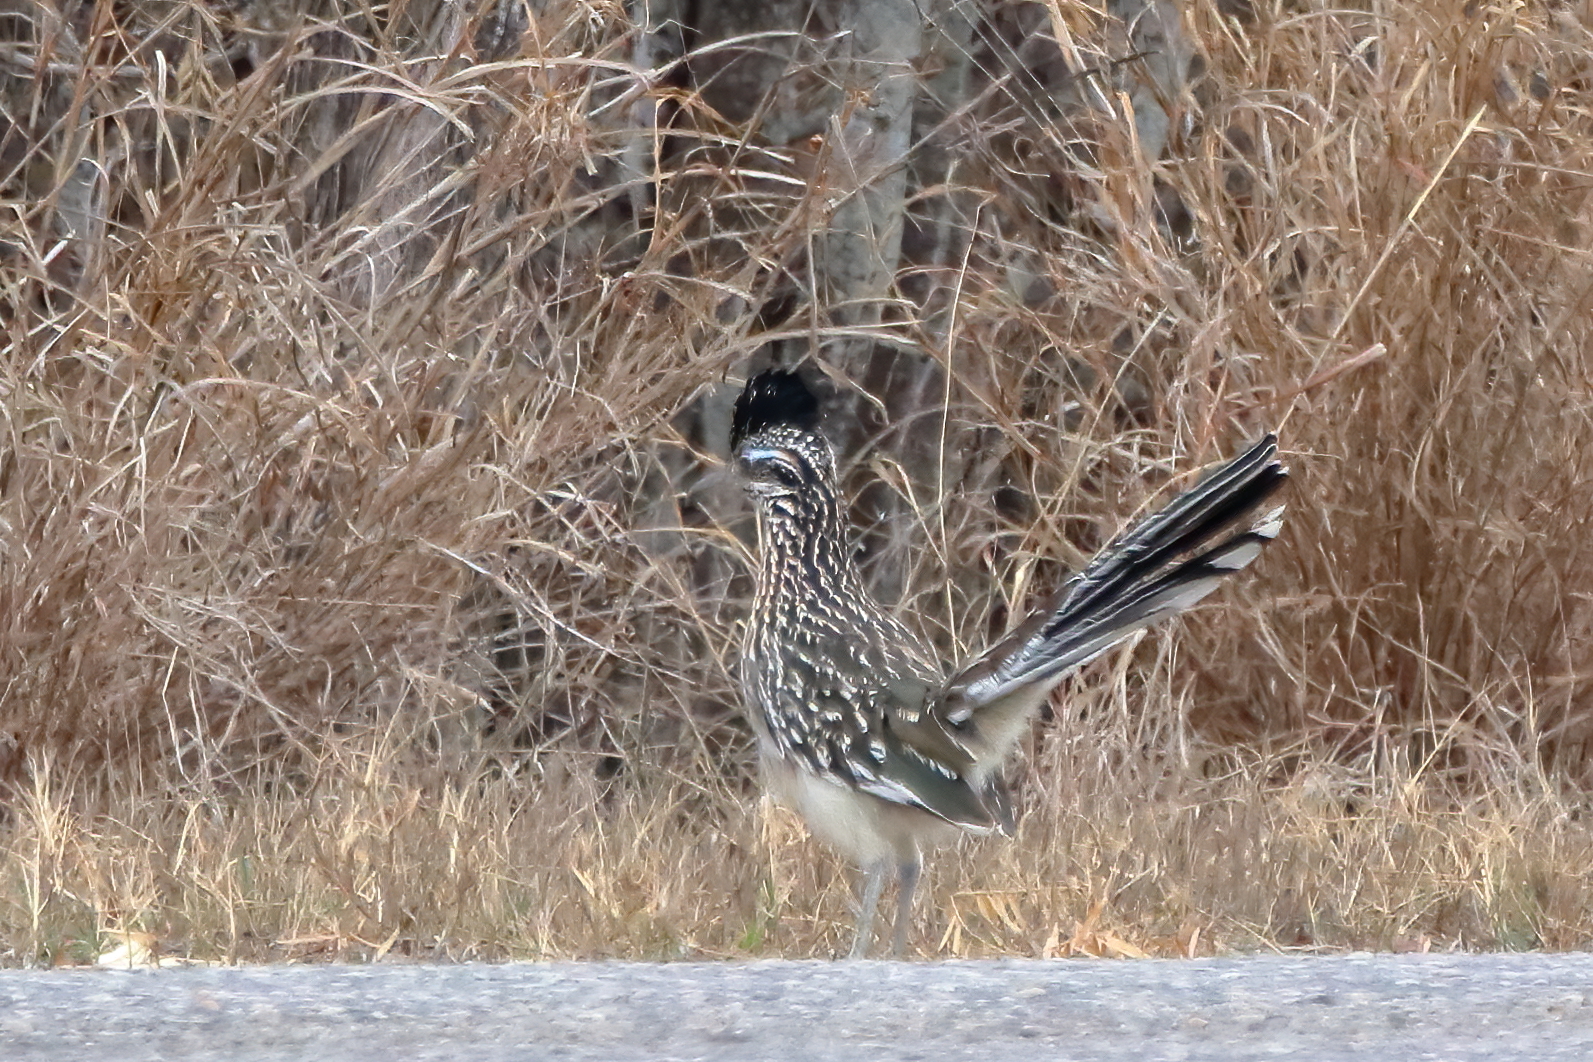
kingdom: Animalia
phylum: Chordata
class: Aves
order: Cuculiformes
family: Cuculidae
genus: Geococcyx
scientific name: Geococcyx californianus
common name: Greater roadrunner
